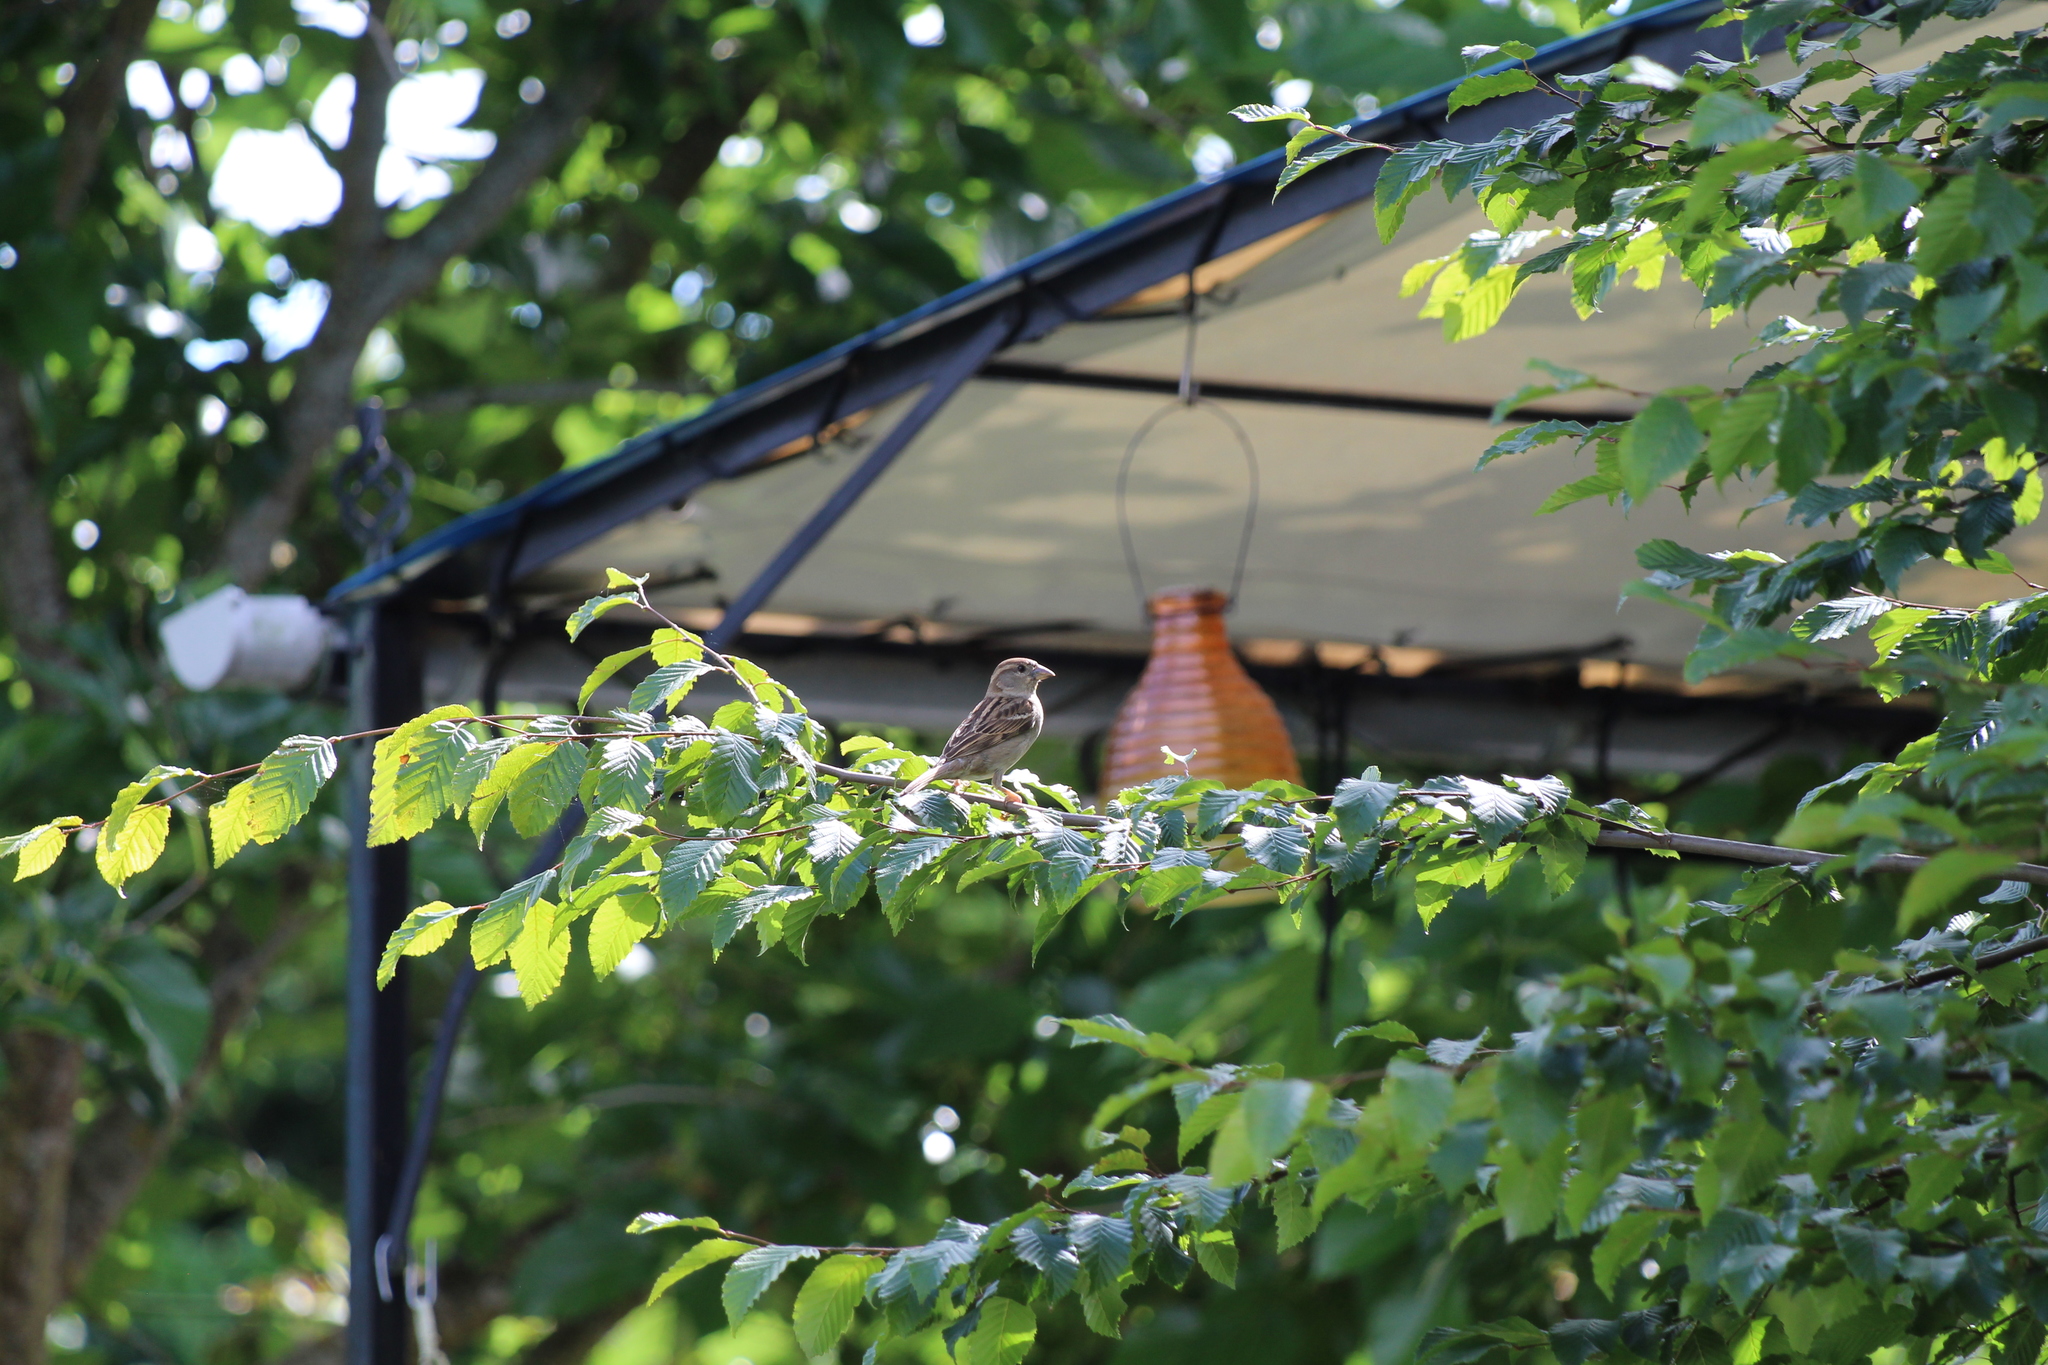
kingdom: Animalia
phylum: Chordata
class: Aves
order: Passeriformes
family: Passeridae
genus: Passer
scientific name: Passer domesticus
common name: House sparrow
